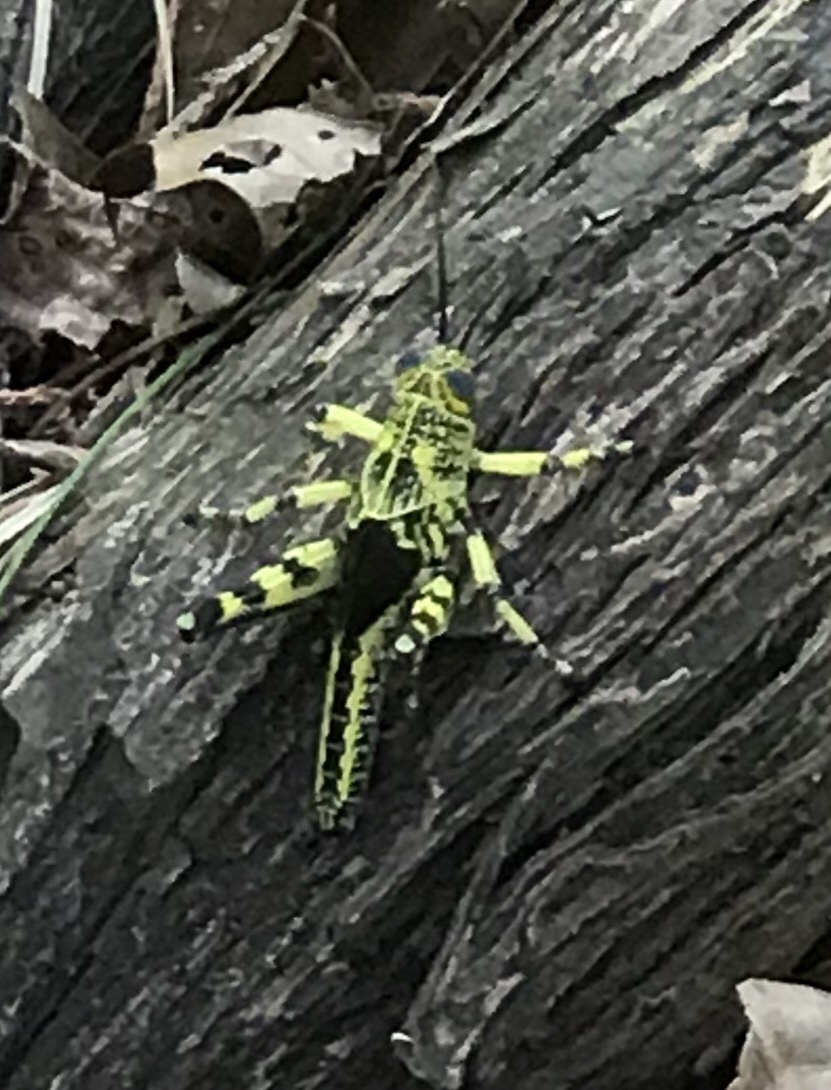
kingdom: Animalia
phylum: Arthropoda
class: Insecta
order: Orthoptera
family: Acrididae
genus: Schistocerca
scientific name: Schistocerca lineata
